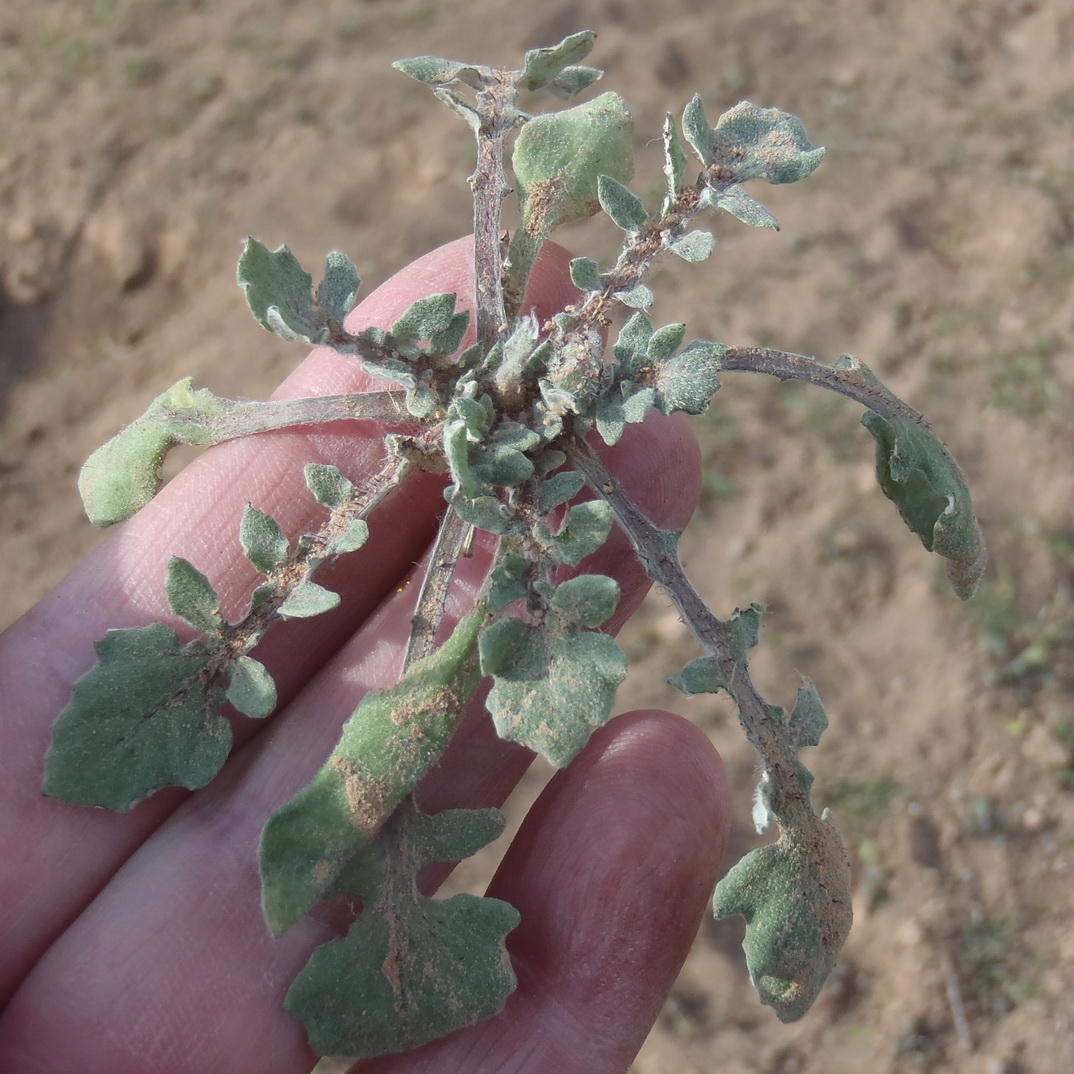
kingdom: Plantae
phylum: Tracheophyta
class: Magnoliopsida
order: Asterales
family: Asteraceae
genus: Arctotis
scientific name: Arctotis dregei
